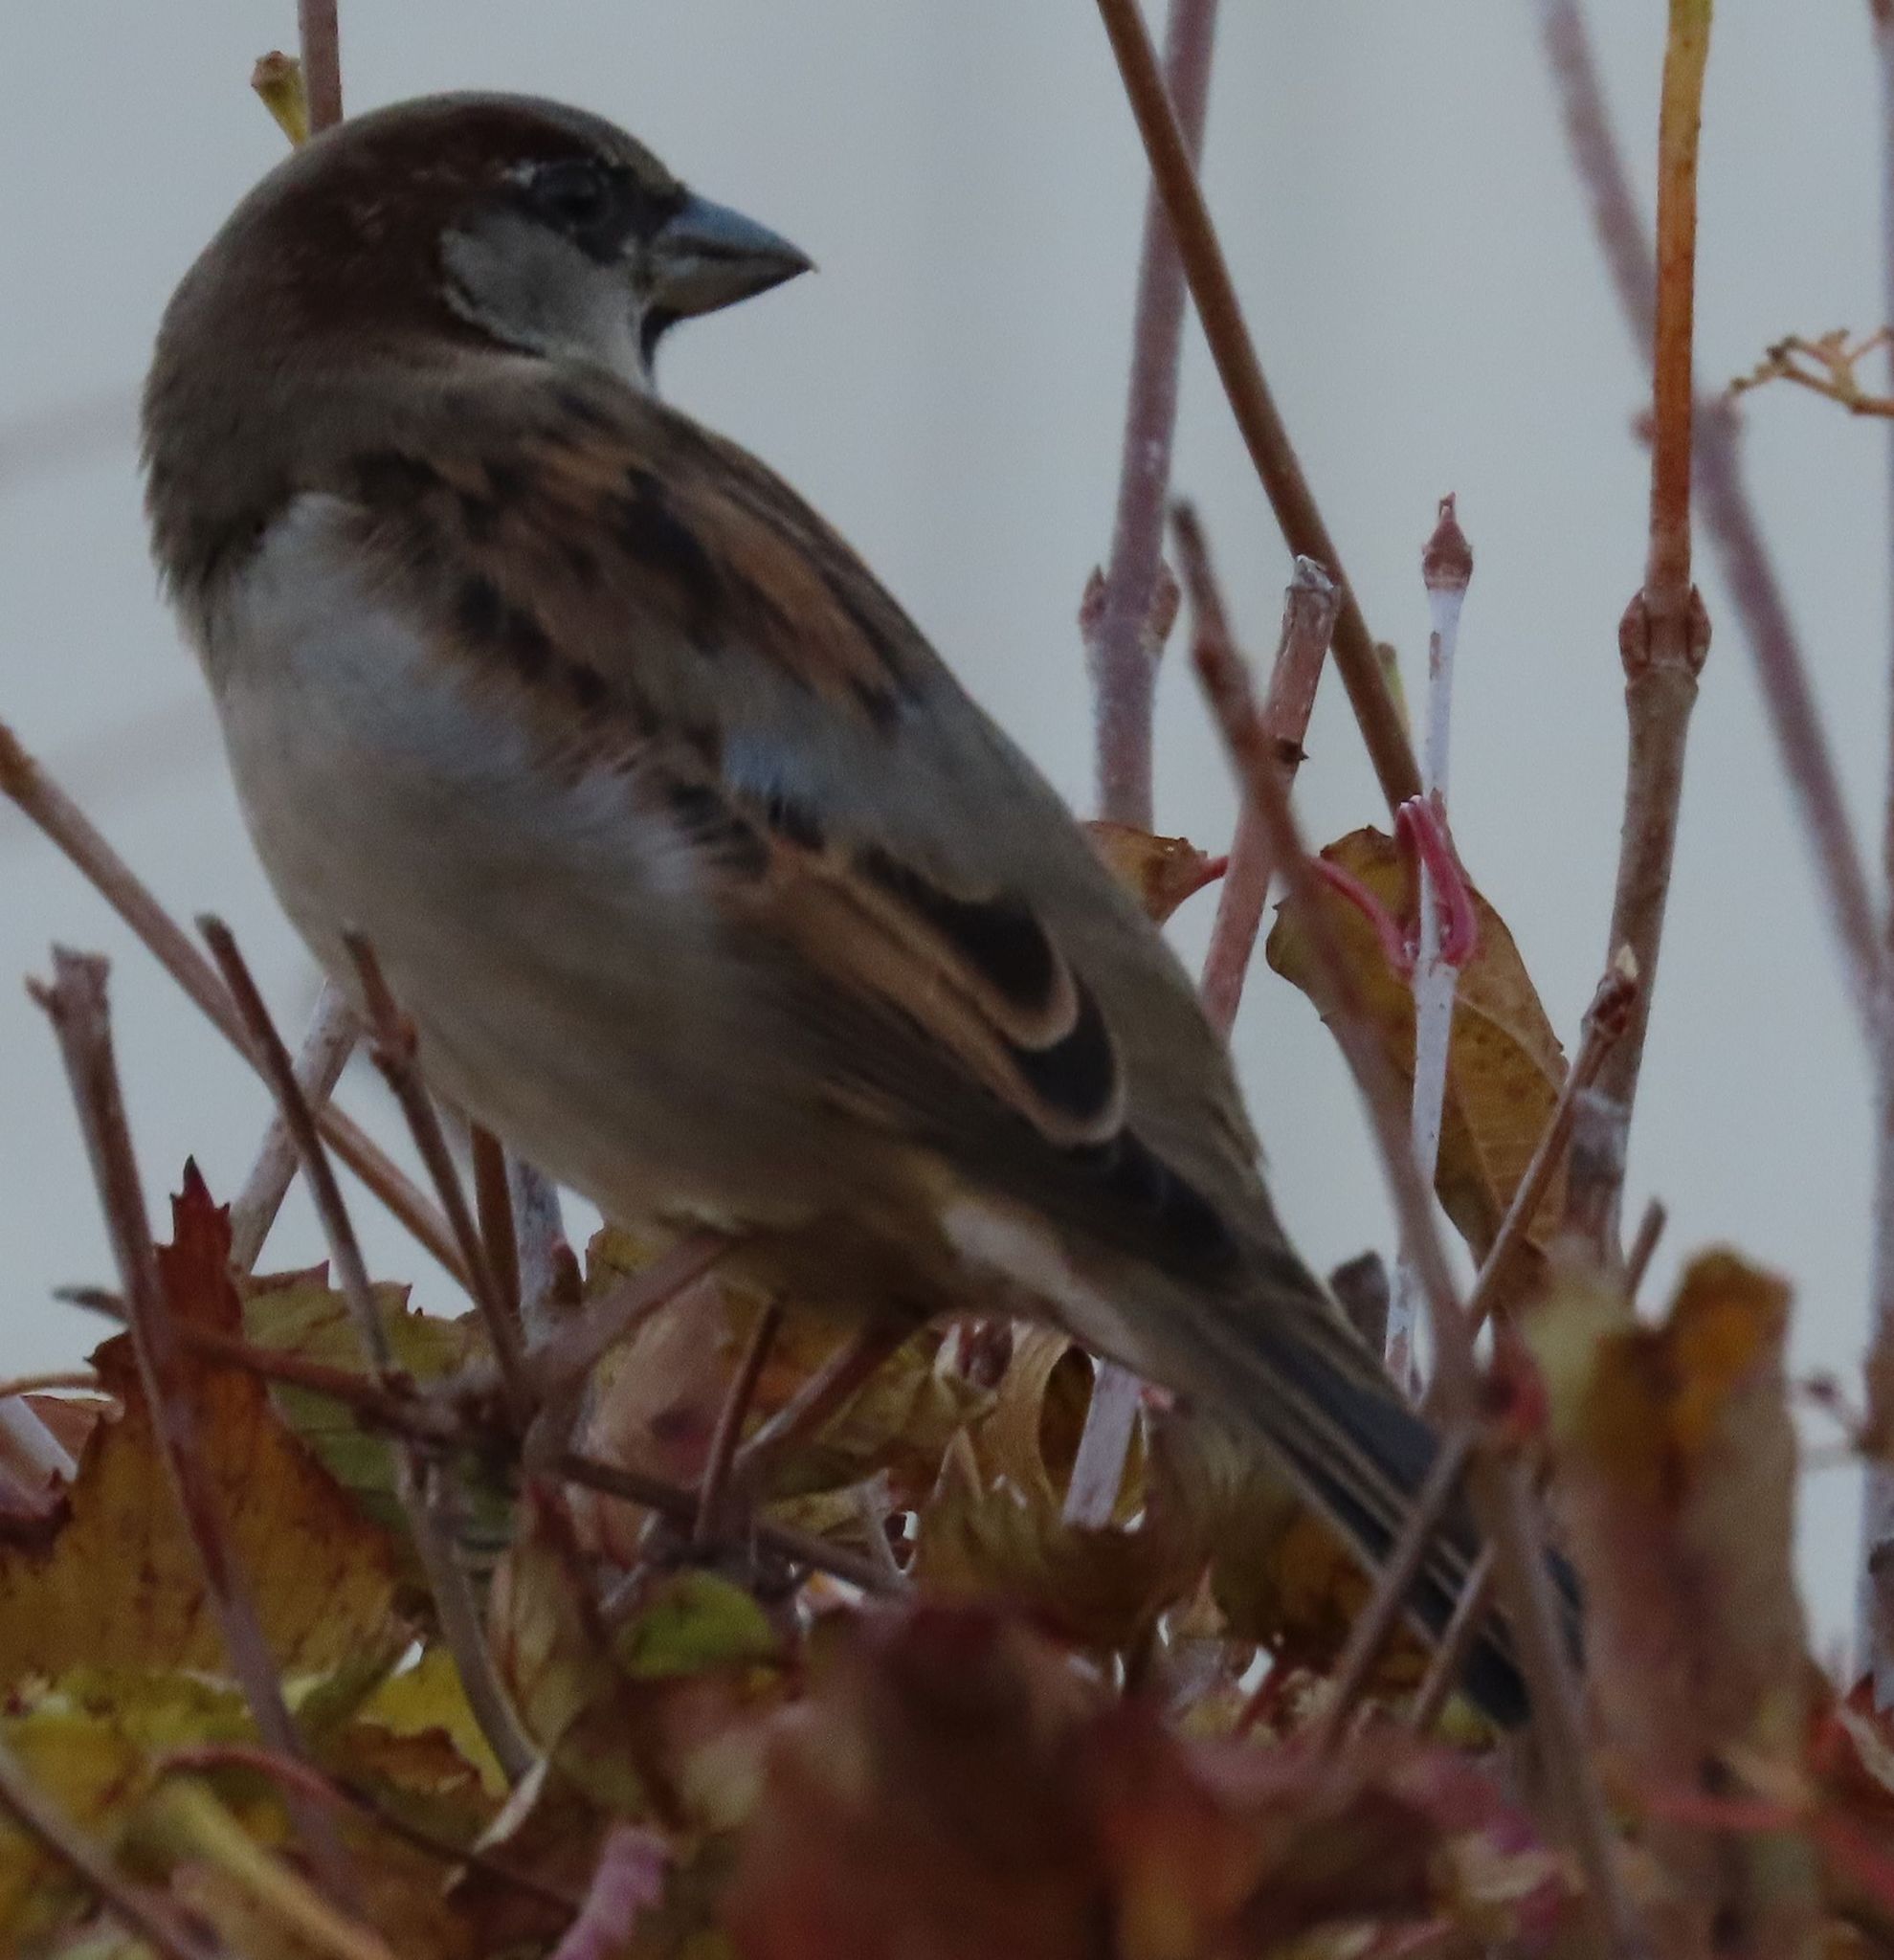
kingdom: Animalia
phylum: Chordata
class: Aves
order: Passeriformes
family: Passeridae
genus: Passer
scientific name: Passer domesticus
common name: House sparrow
